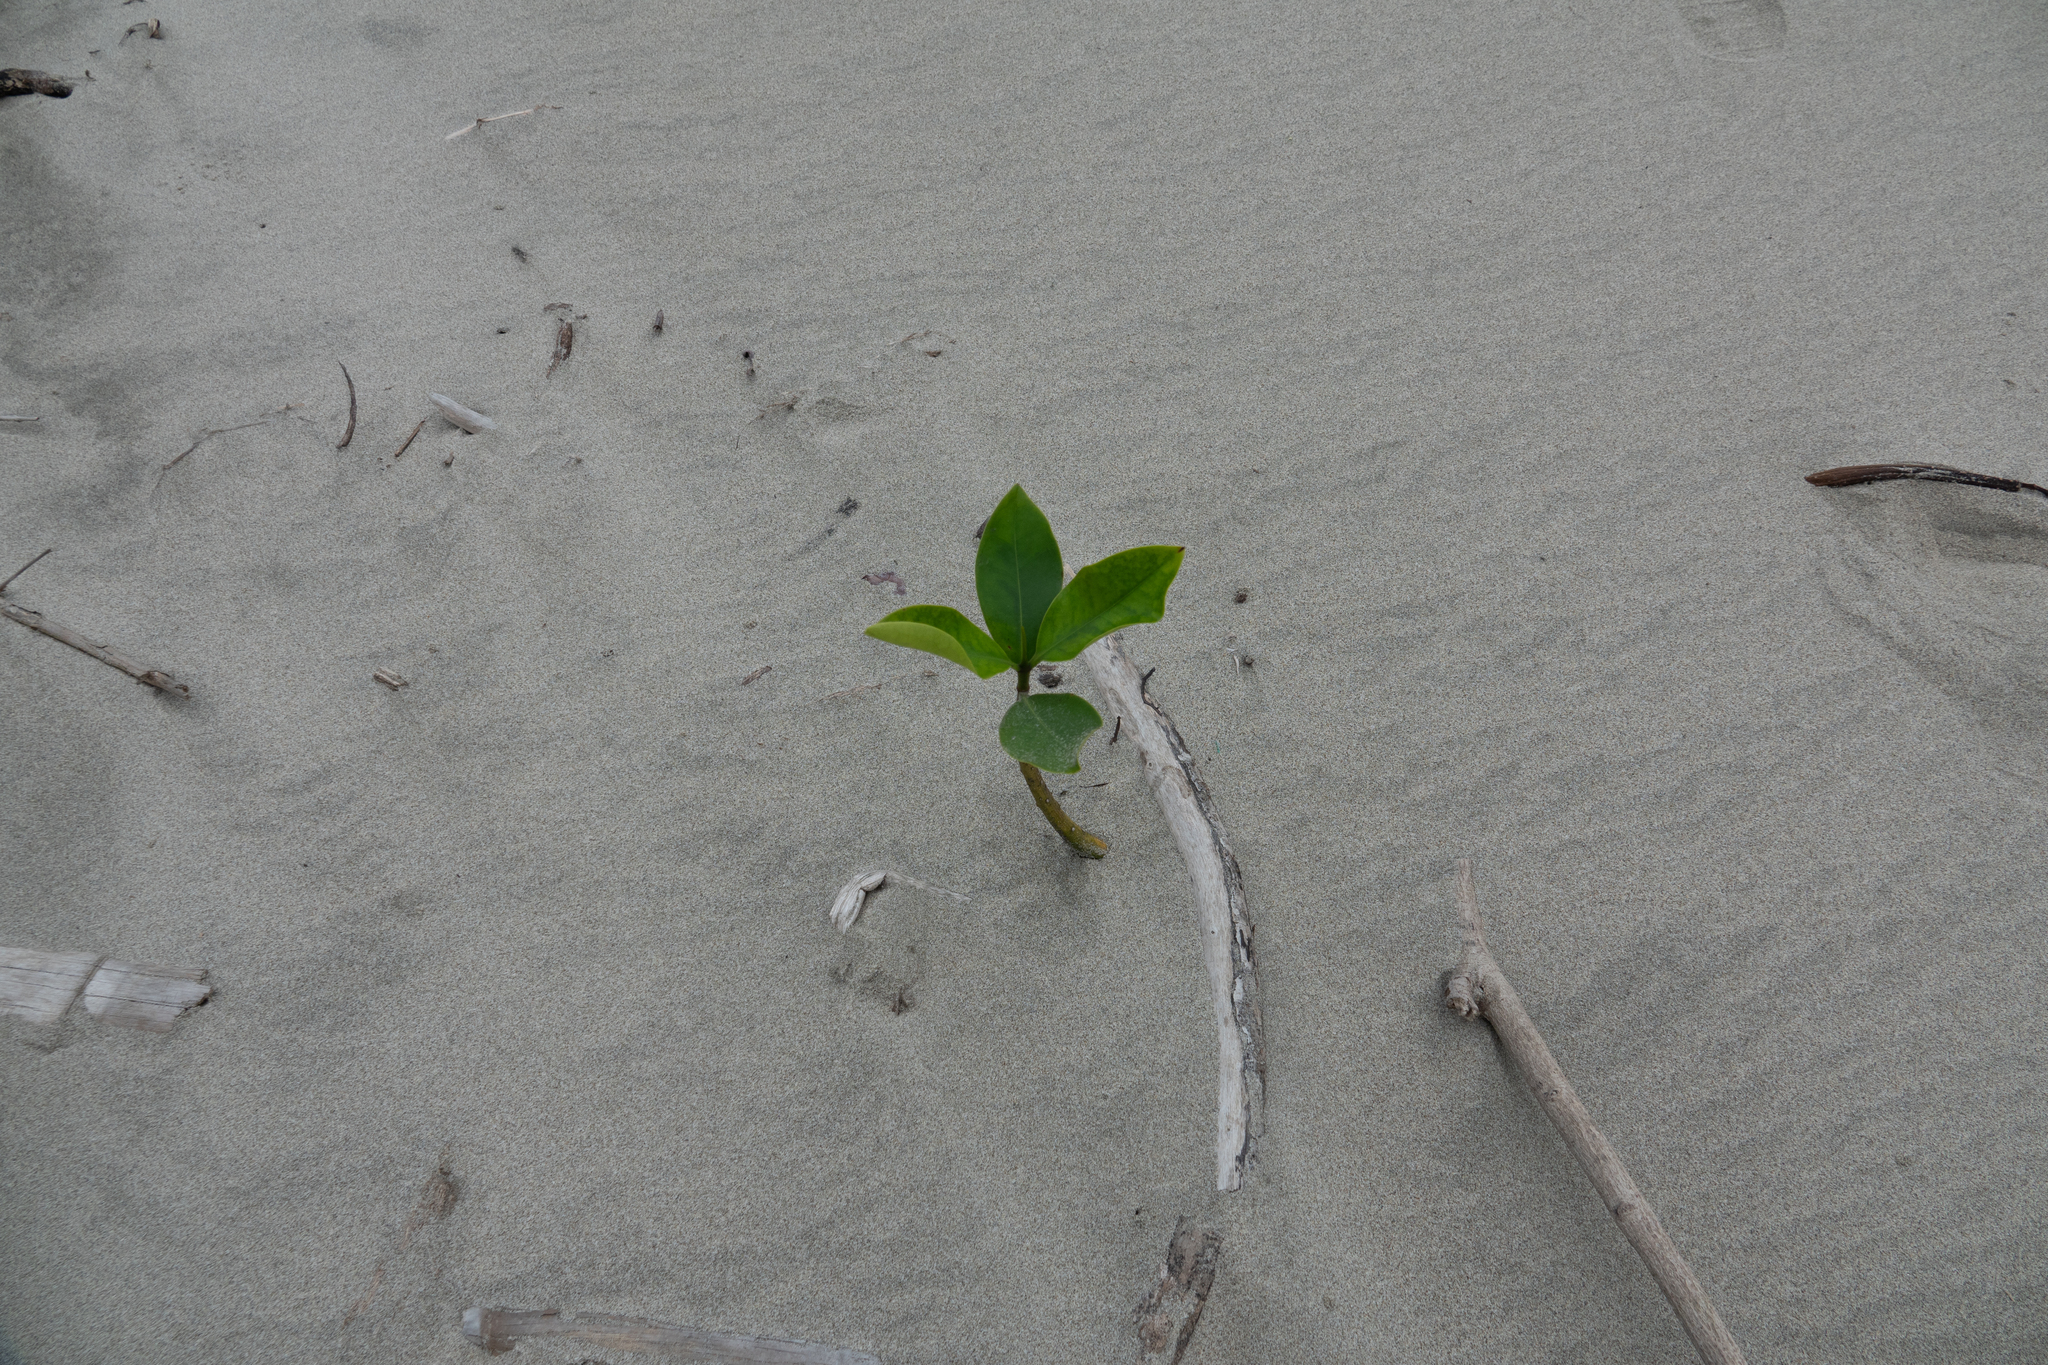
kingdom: Plantae
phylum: Tracheophyta
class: Magnoliopsida
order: Malpighiales
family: Rhizophoraceae
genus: Rhizophora
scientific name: Rhizophora mangle
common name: Red mangrove
